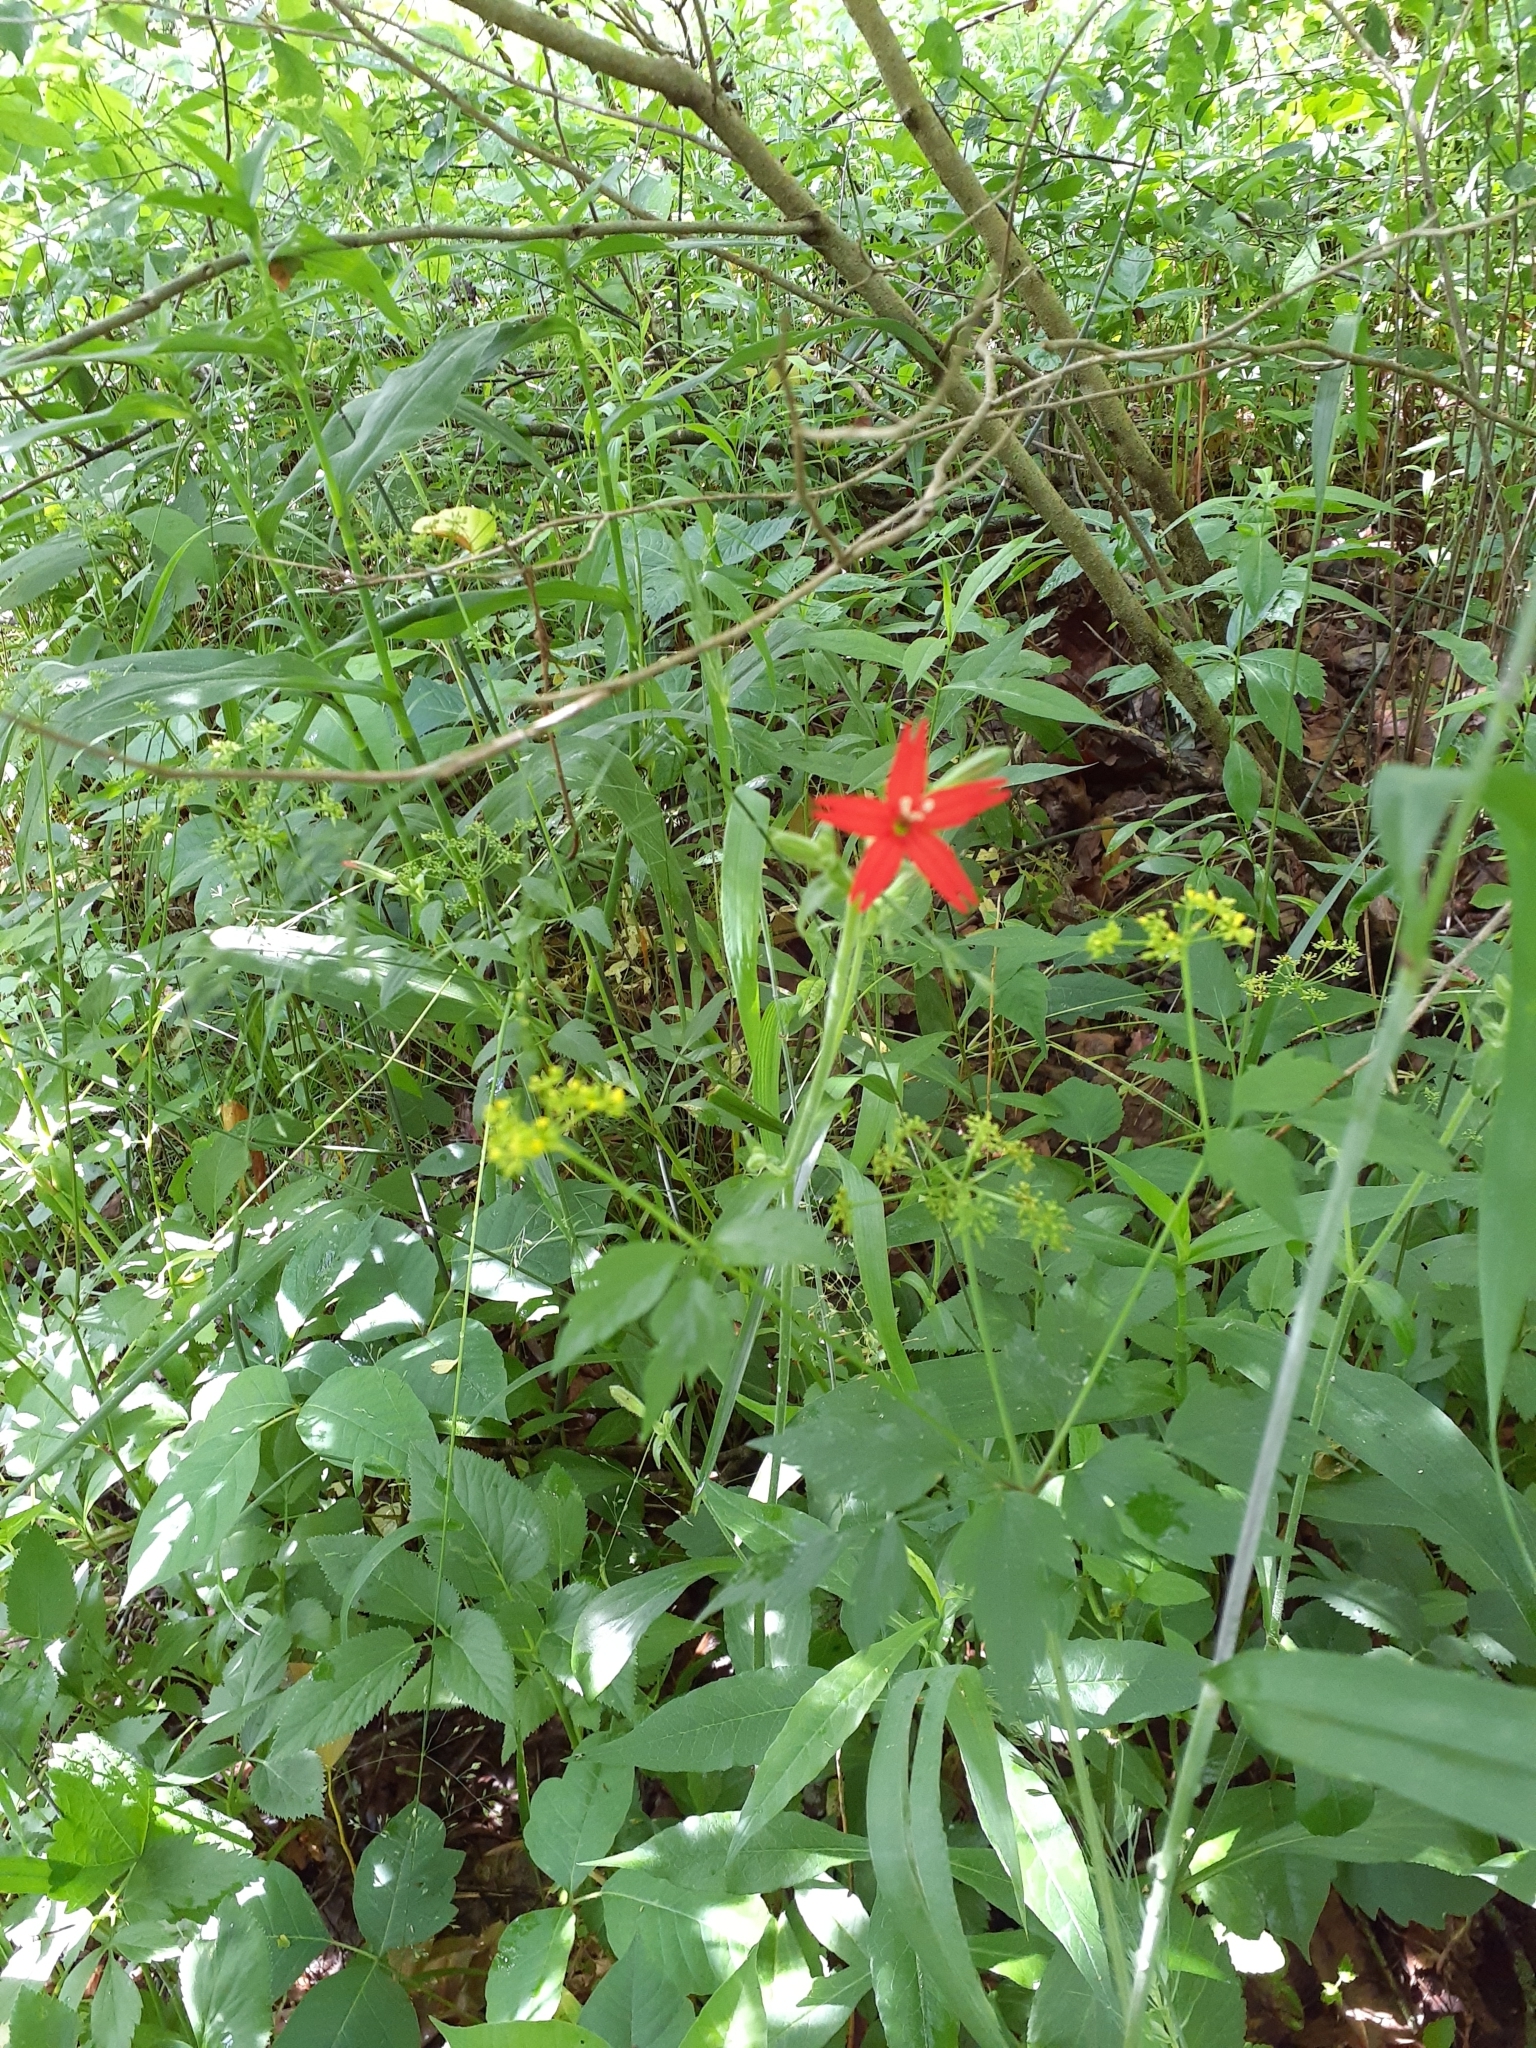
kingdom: Plantae
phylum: Tracheophyta
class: Magnoliopsida
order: Caryophyllales
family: Caryophyllaceae
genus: Silene
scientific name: Silene virginica
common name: Fire-pink
